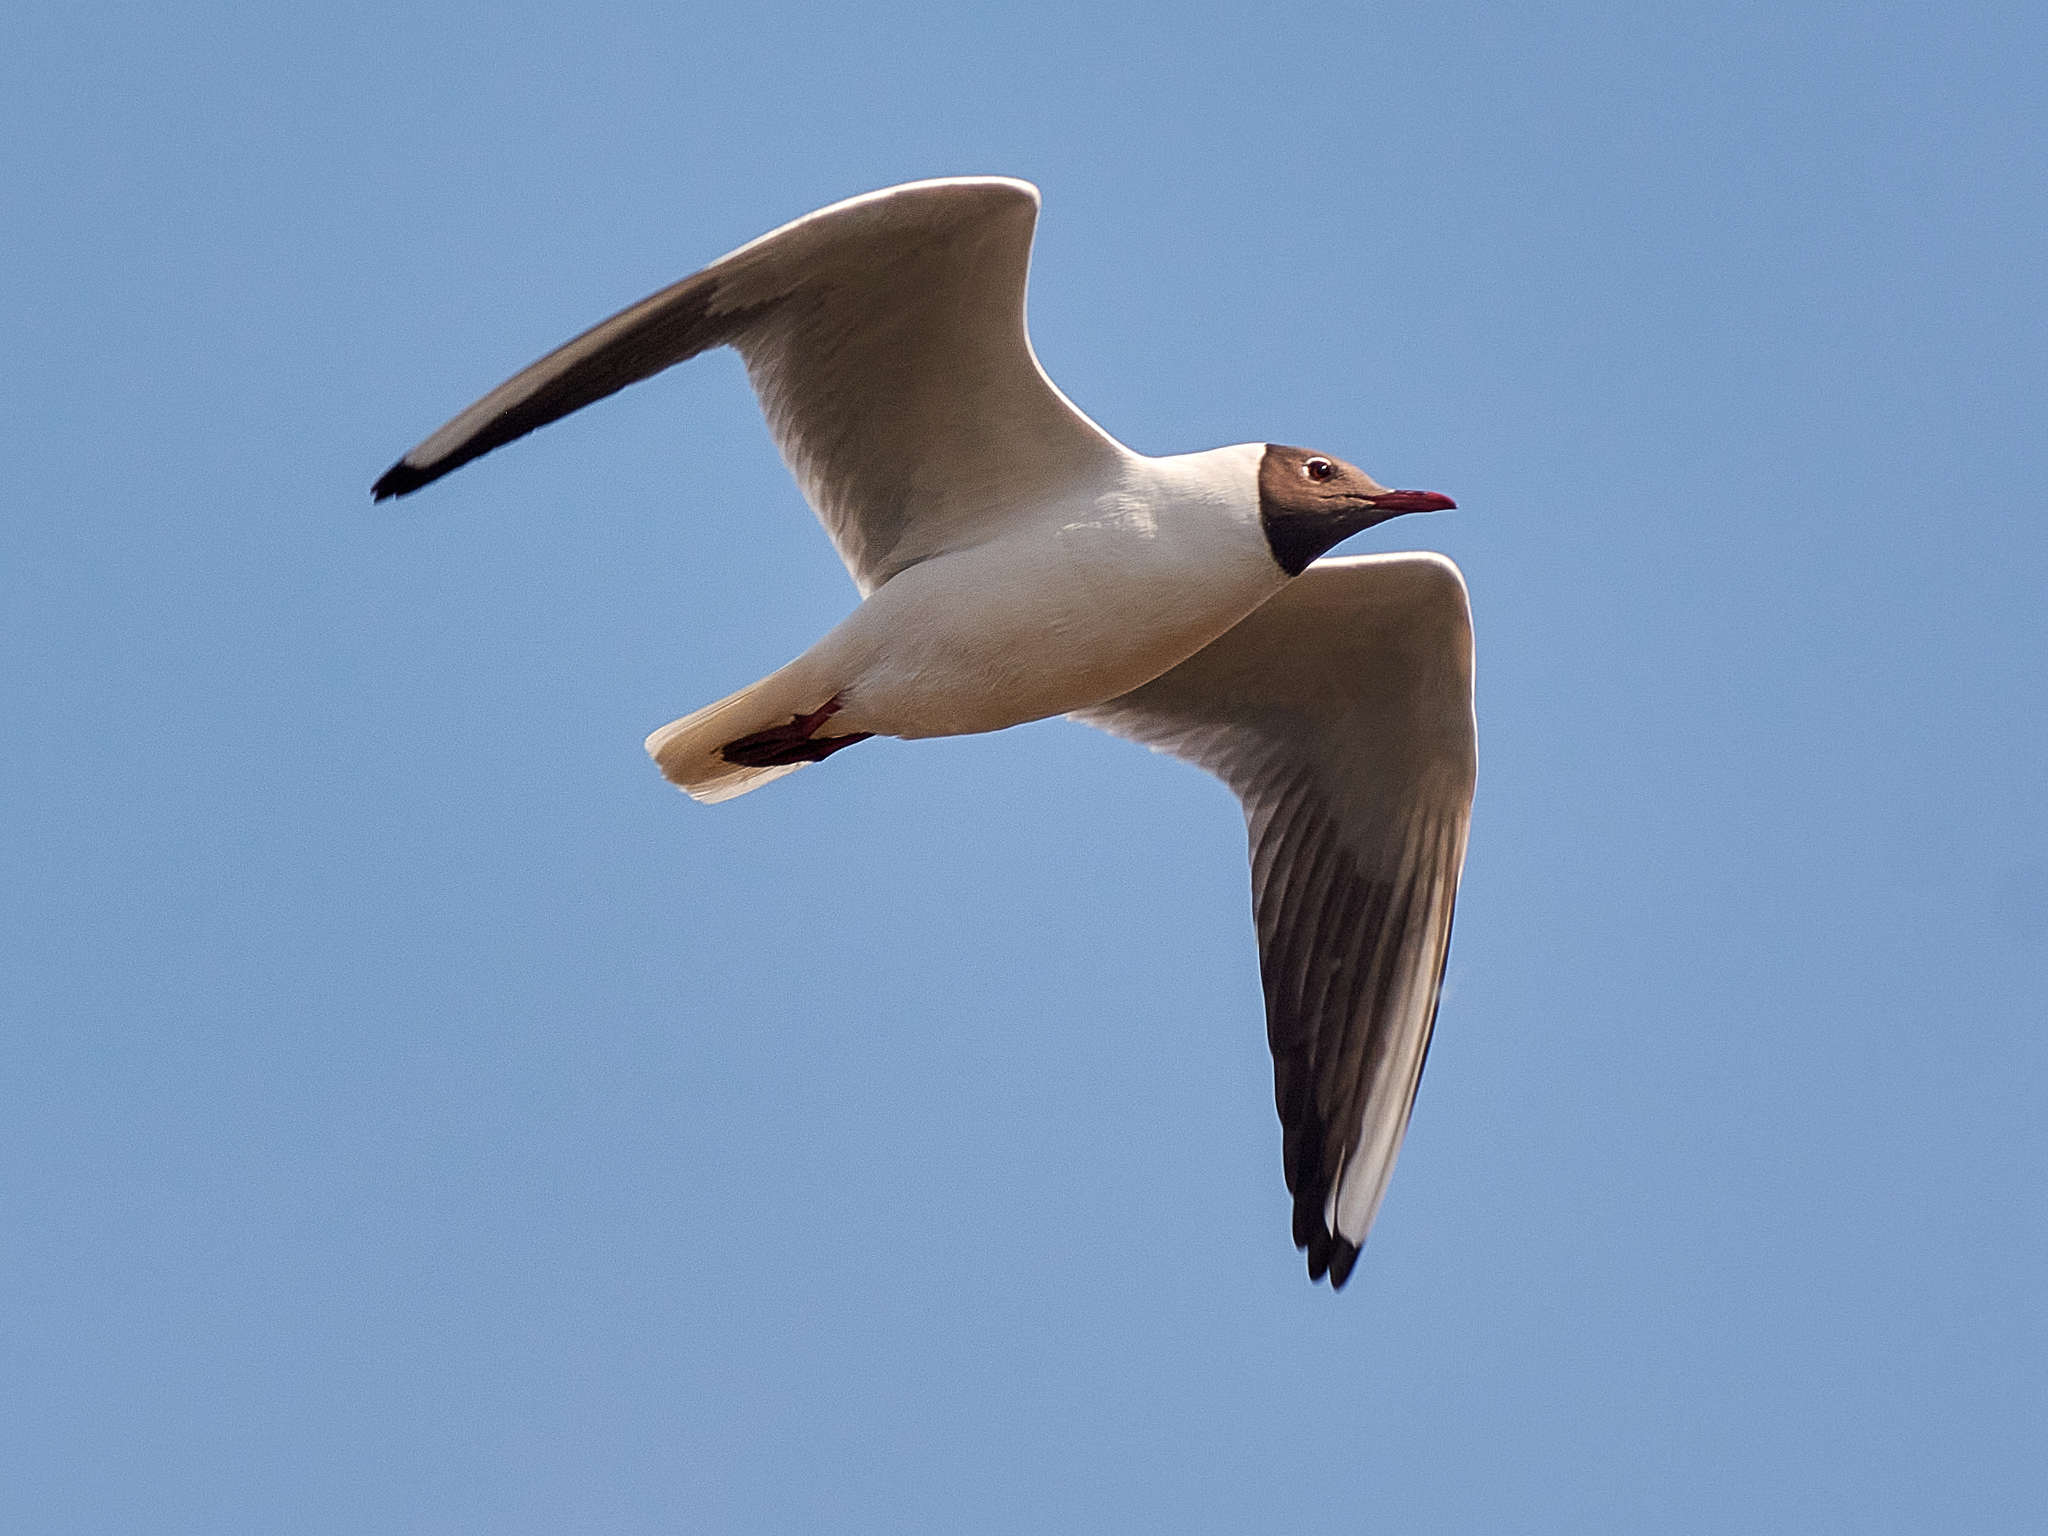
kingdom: Animalia
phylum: Chordata
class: Aves
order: Charadriiformes
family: Laridae
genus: Chroicocephalus
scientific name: Chroicocephalus ridibundus
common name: Black-headed gull
